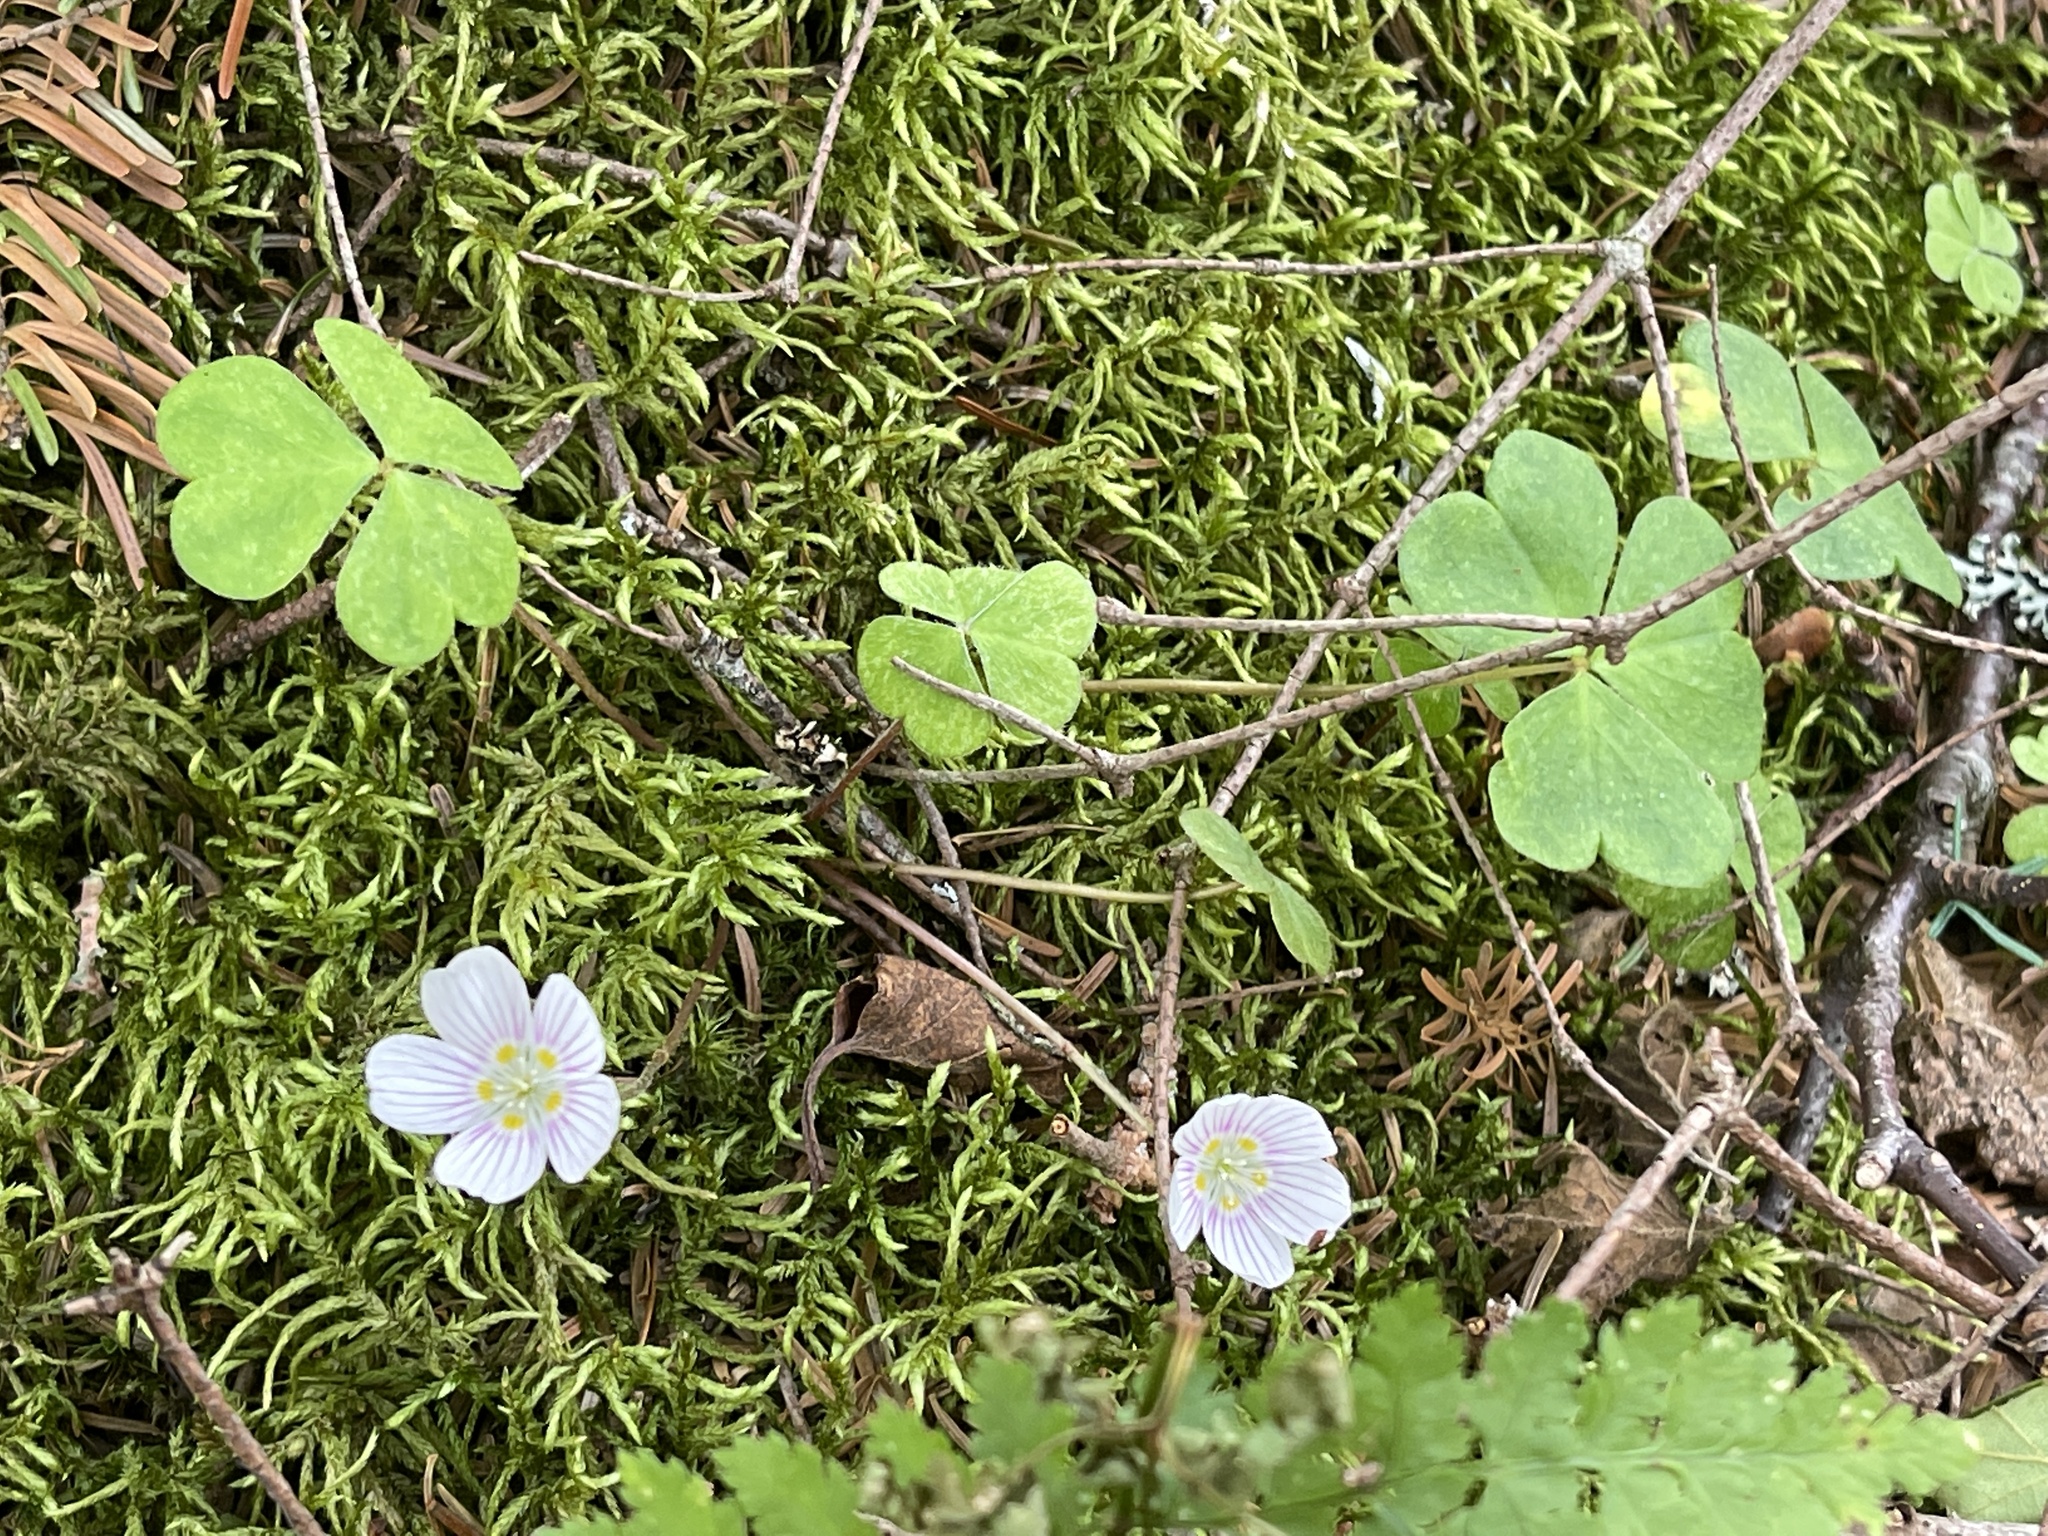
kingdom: Plantae
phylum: Tracheophyta
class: Magnoliopsida
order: Oxalidales
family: Oxalidaceae
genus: Oxalis
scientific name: Oxalis montana
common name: American wood-sorrel
